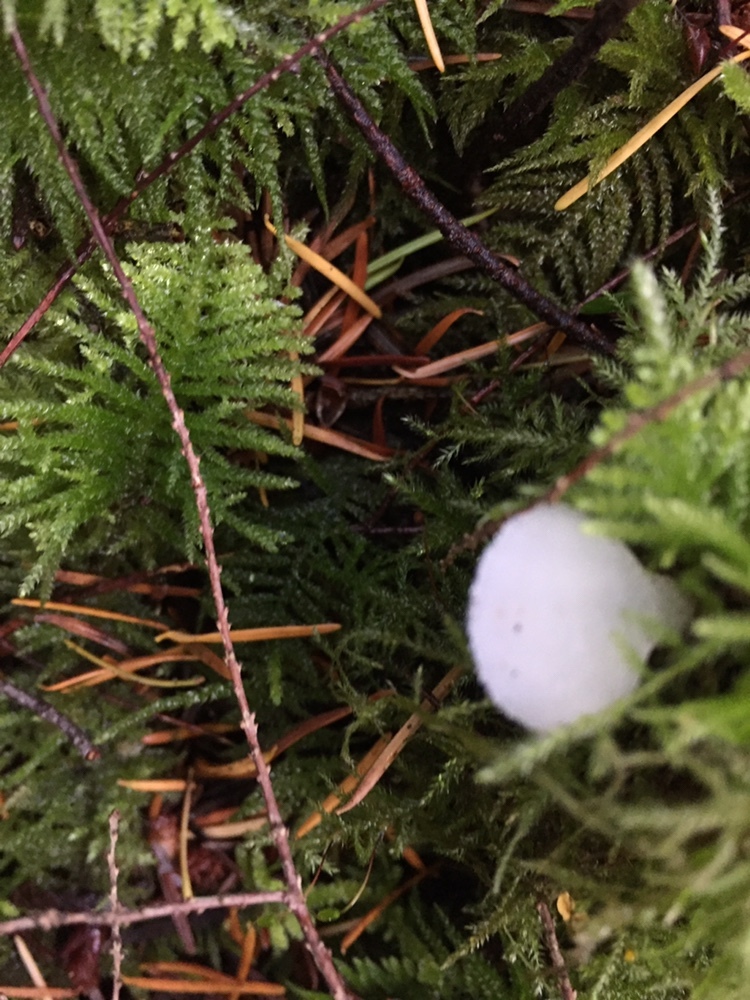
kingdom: Fungi
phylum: Basidiomycota
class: Agaricomycetes
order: Auriculariales
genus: Pseudohydnum
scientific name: Pseudohydnum gelatinosum
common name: Jelly tongue
